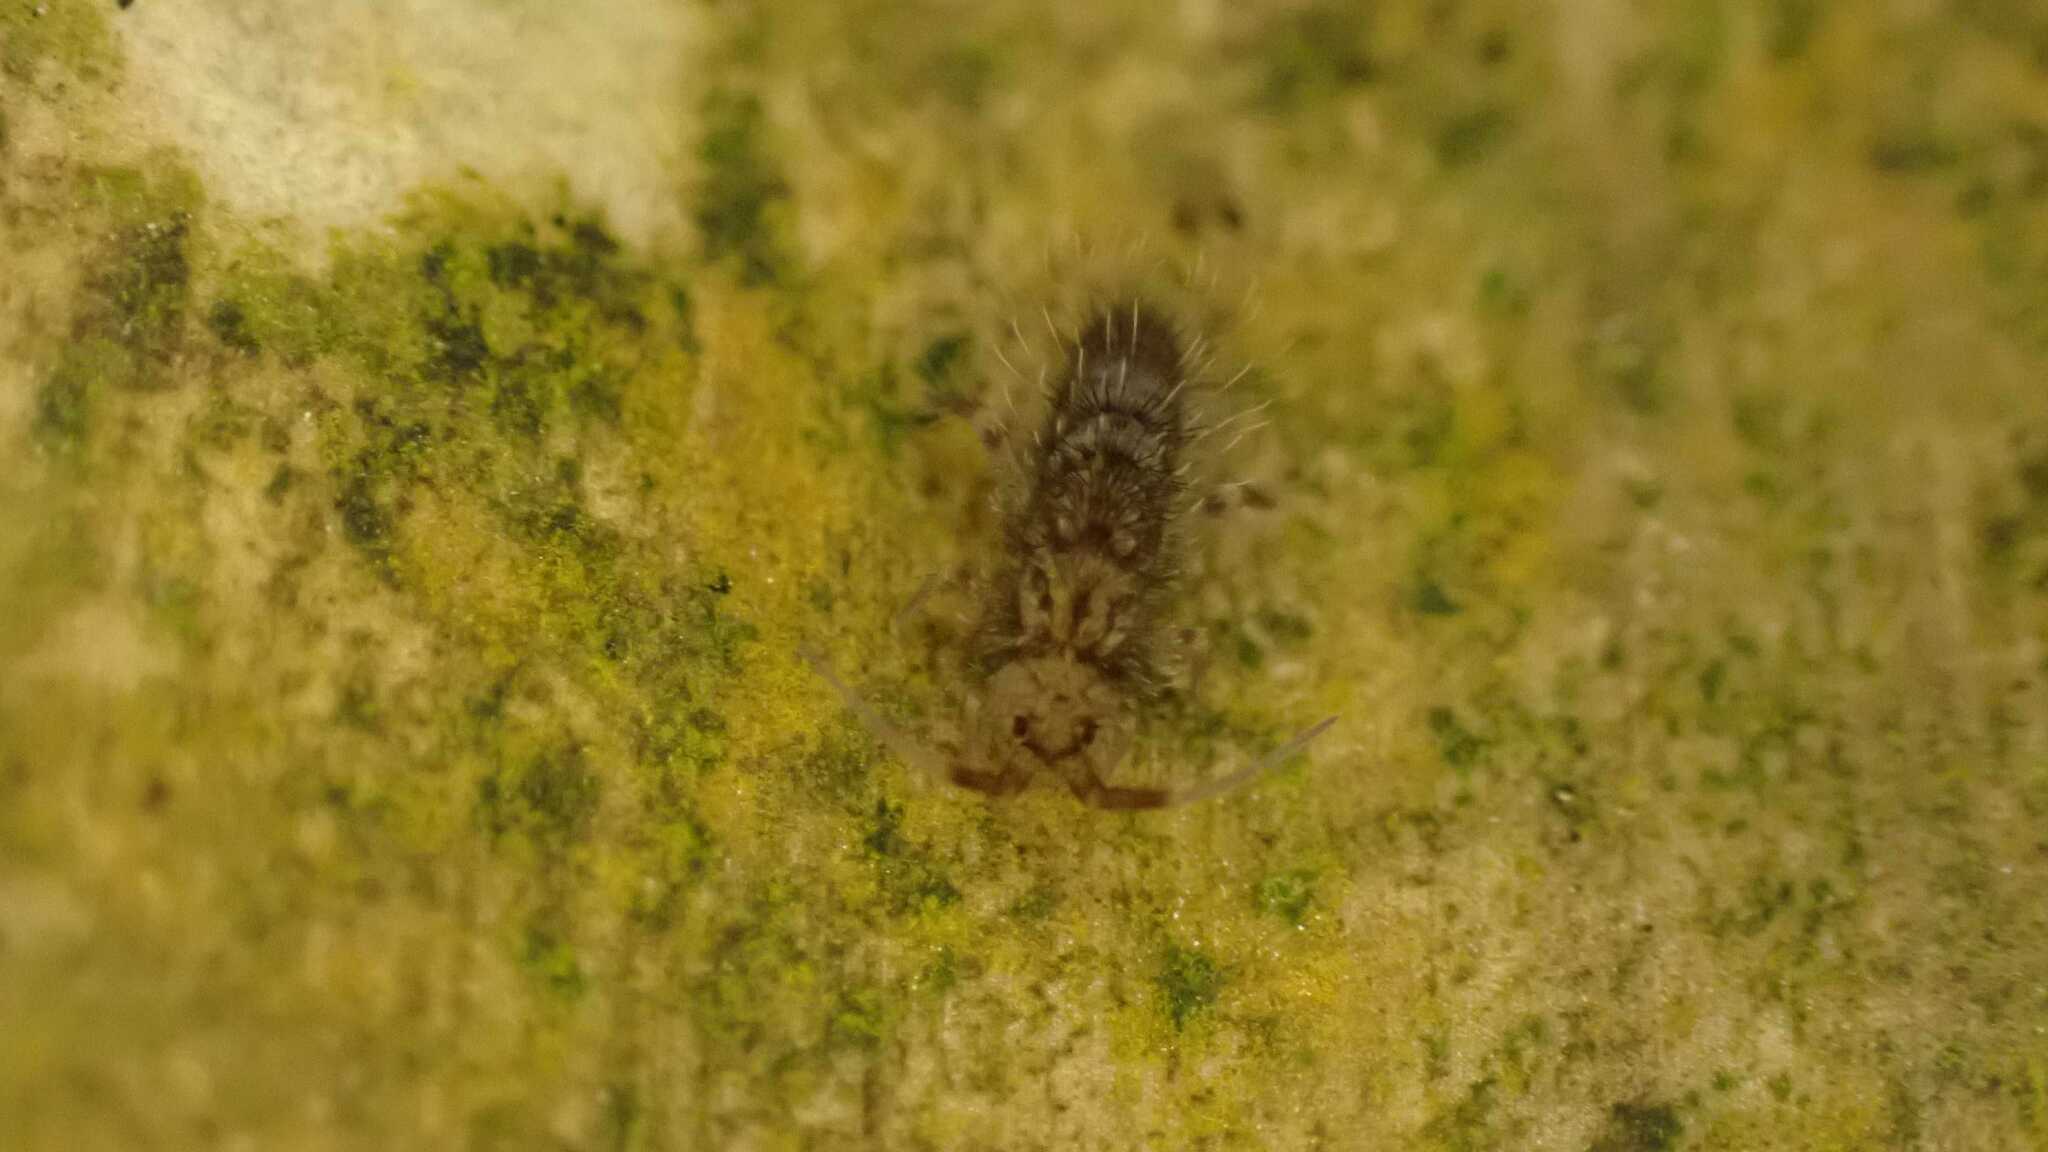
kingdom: Animalia
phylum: Arthropoda
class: Collembola
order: Entomobryomorpha
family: Orchesellidae
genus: Orchesella
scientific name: Orchesella villosa
